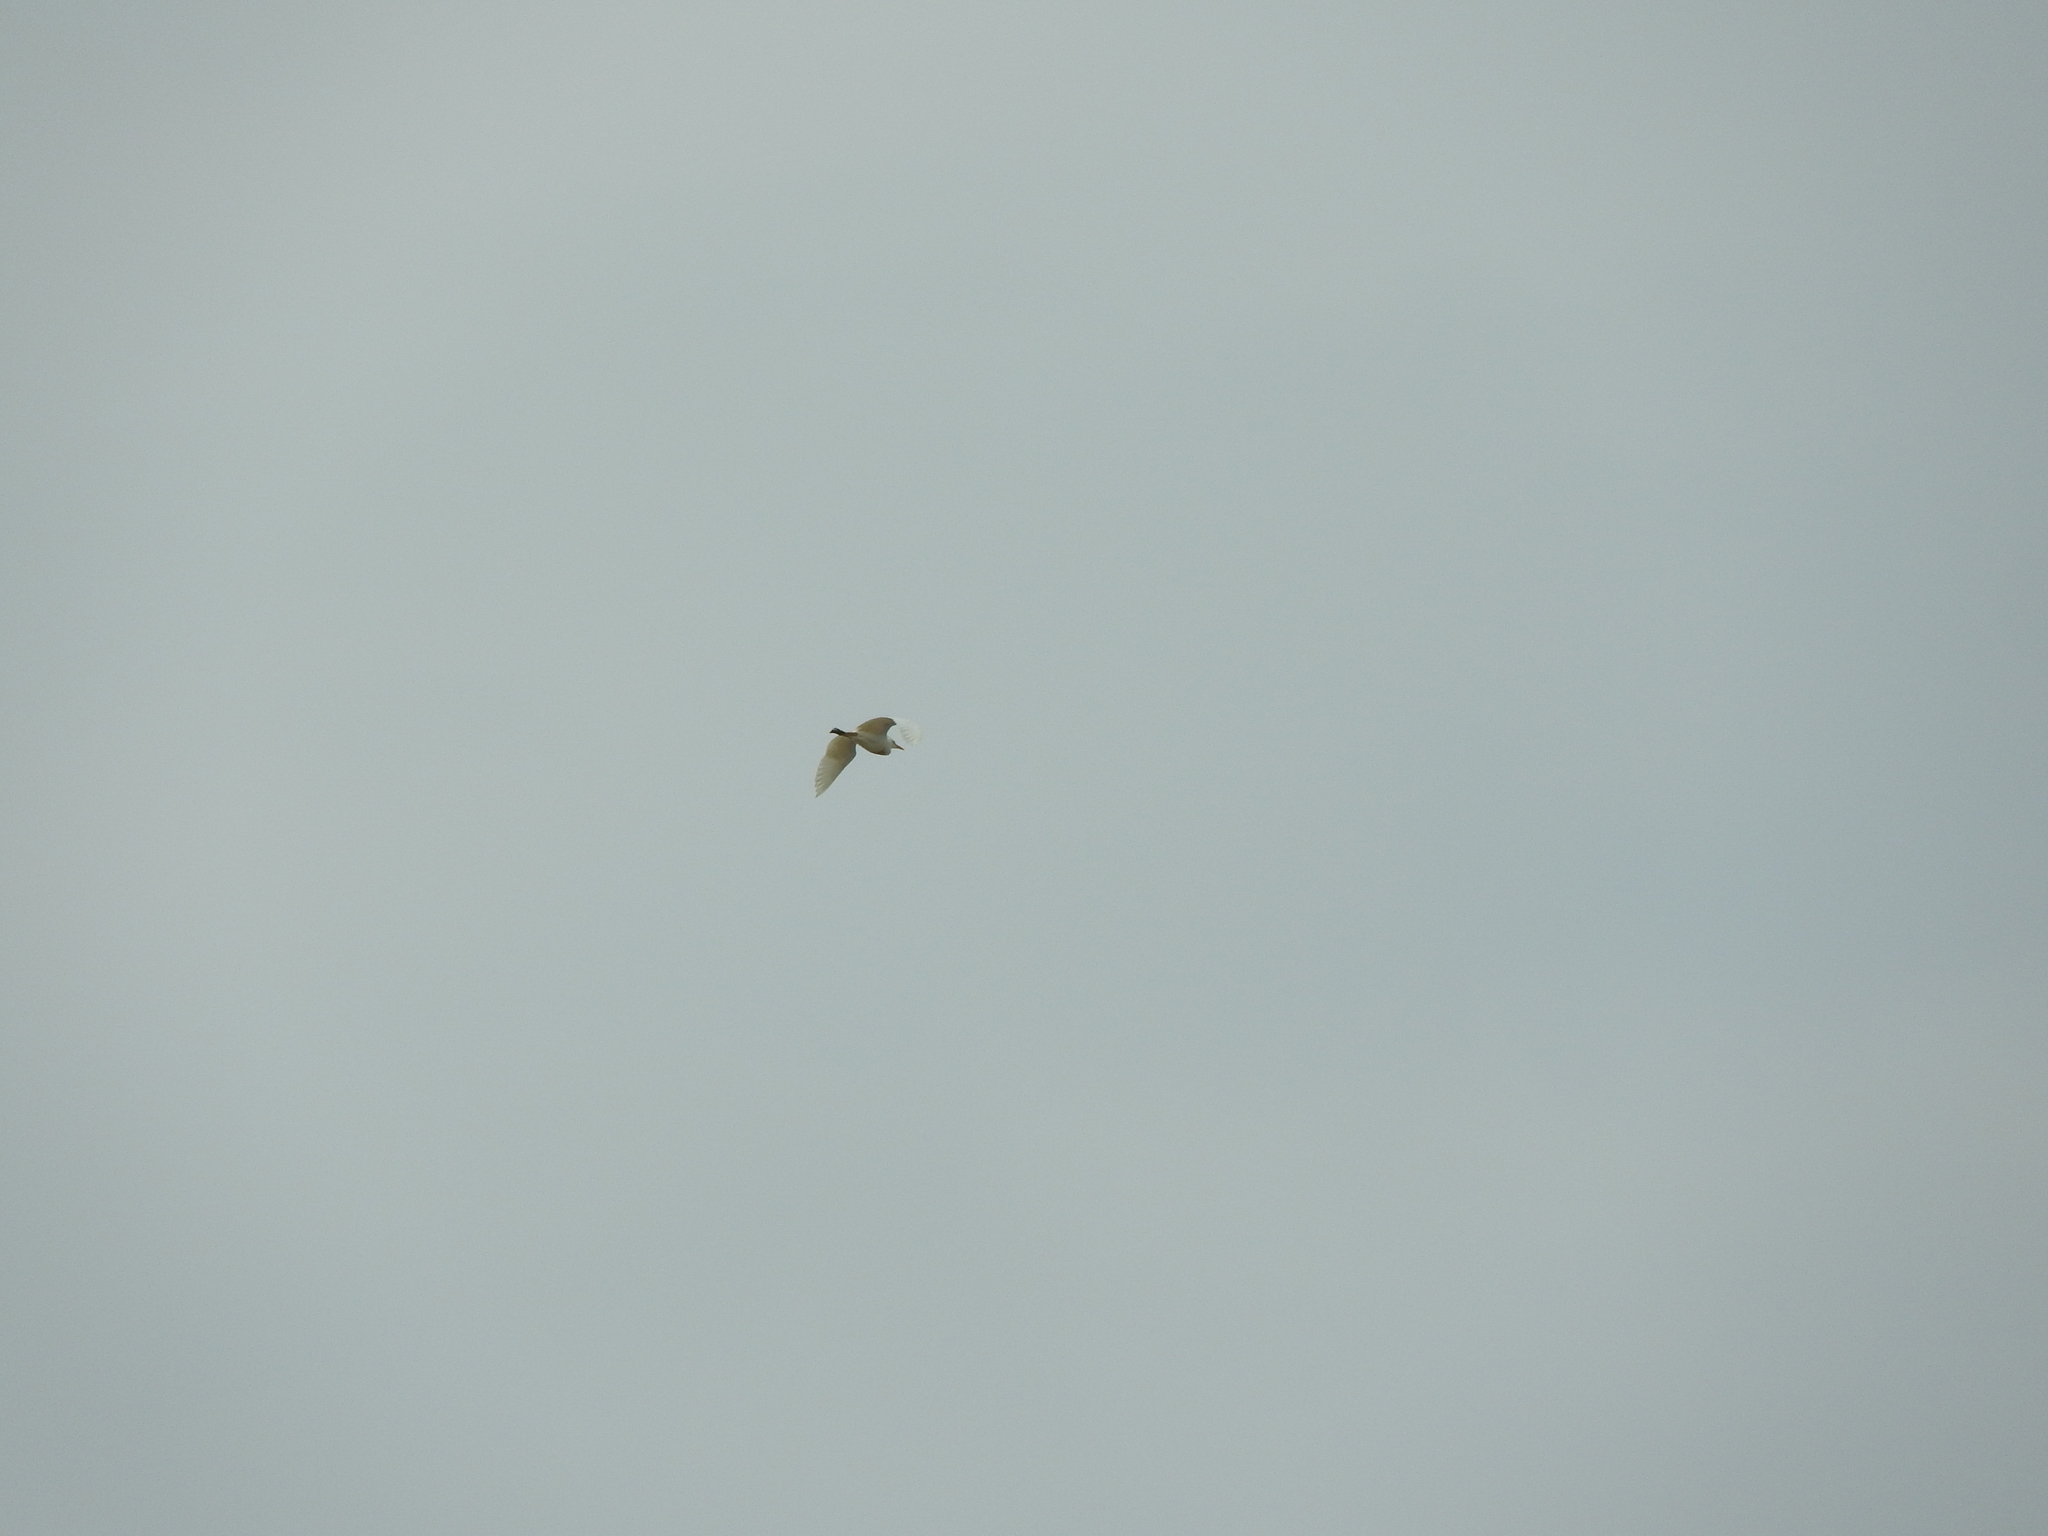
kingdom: Animalia
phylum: Chordata
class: Aves
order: Pelecaniformes
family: Ardeidae
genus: Bubulcus
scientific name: Bubulcus ibis
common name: Cattle egret
